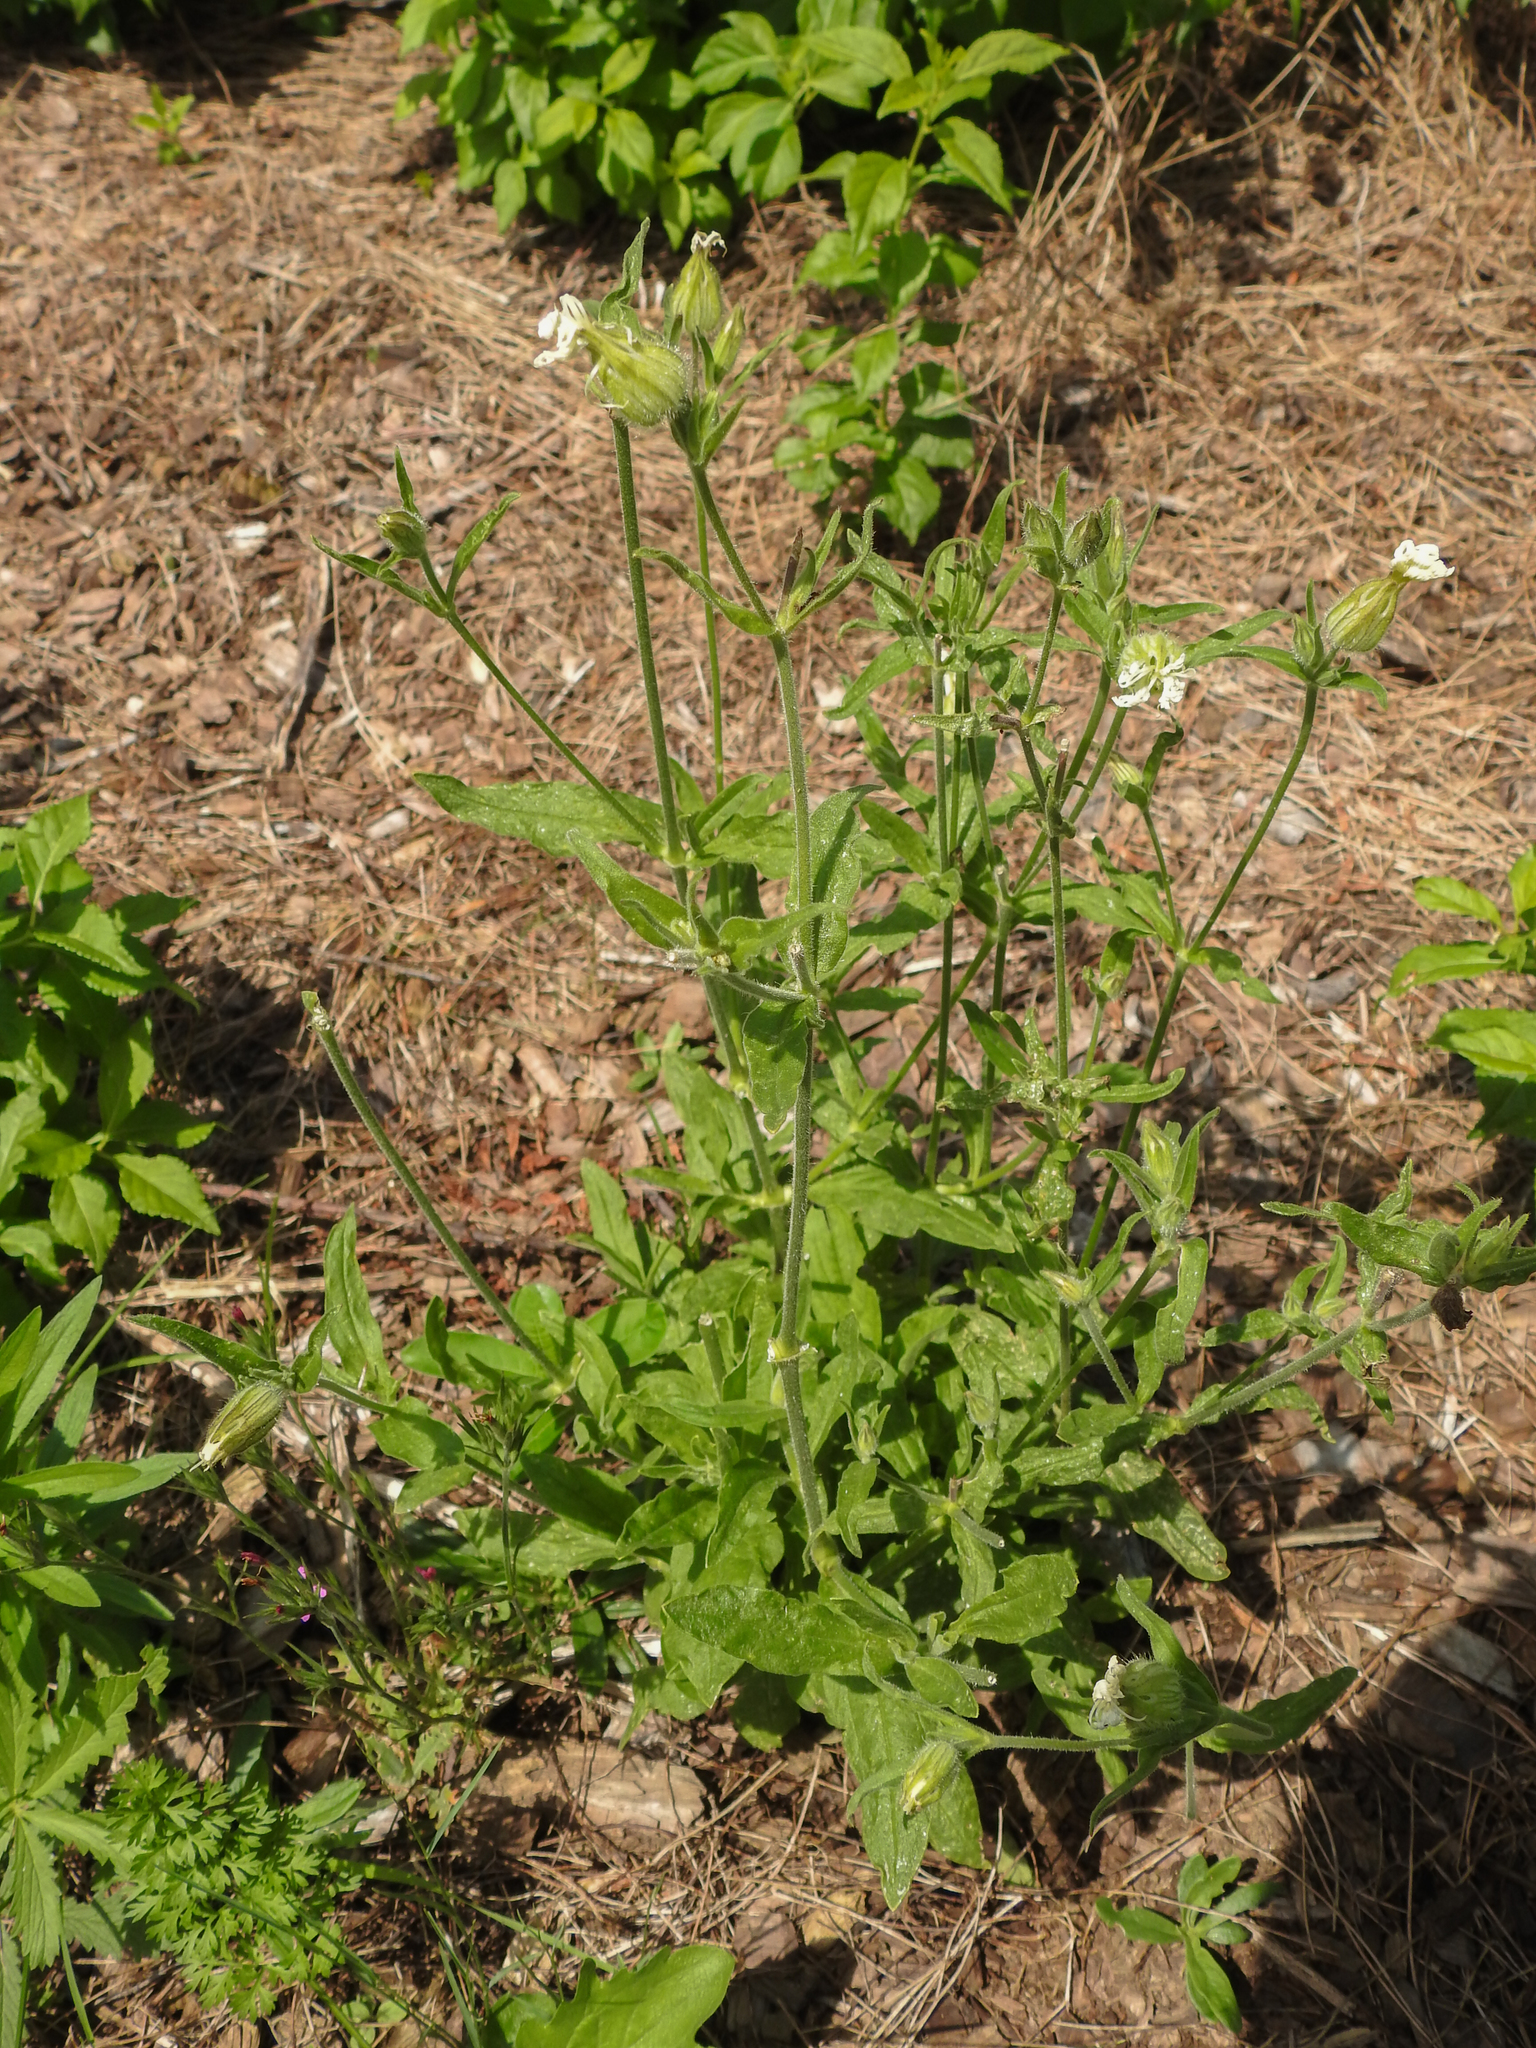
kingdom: Plantae
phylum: Tracheophyta
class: Magnoliopsida
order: Caryophyllales
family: Caryophyllaceae
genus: Silene
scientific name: Silene latifolia
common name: White campion
